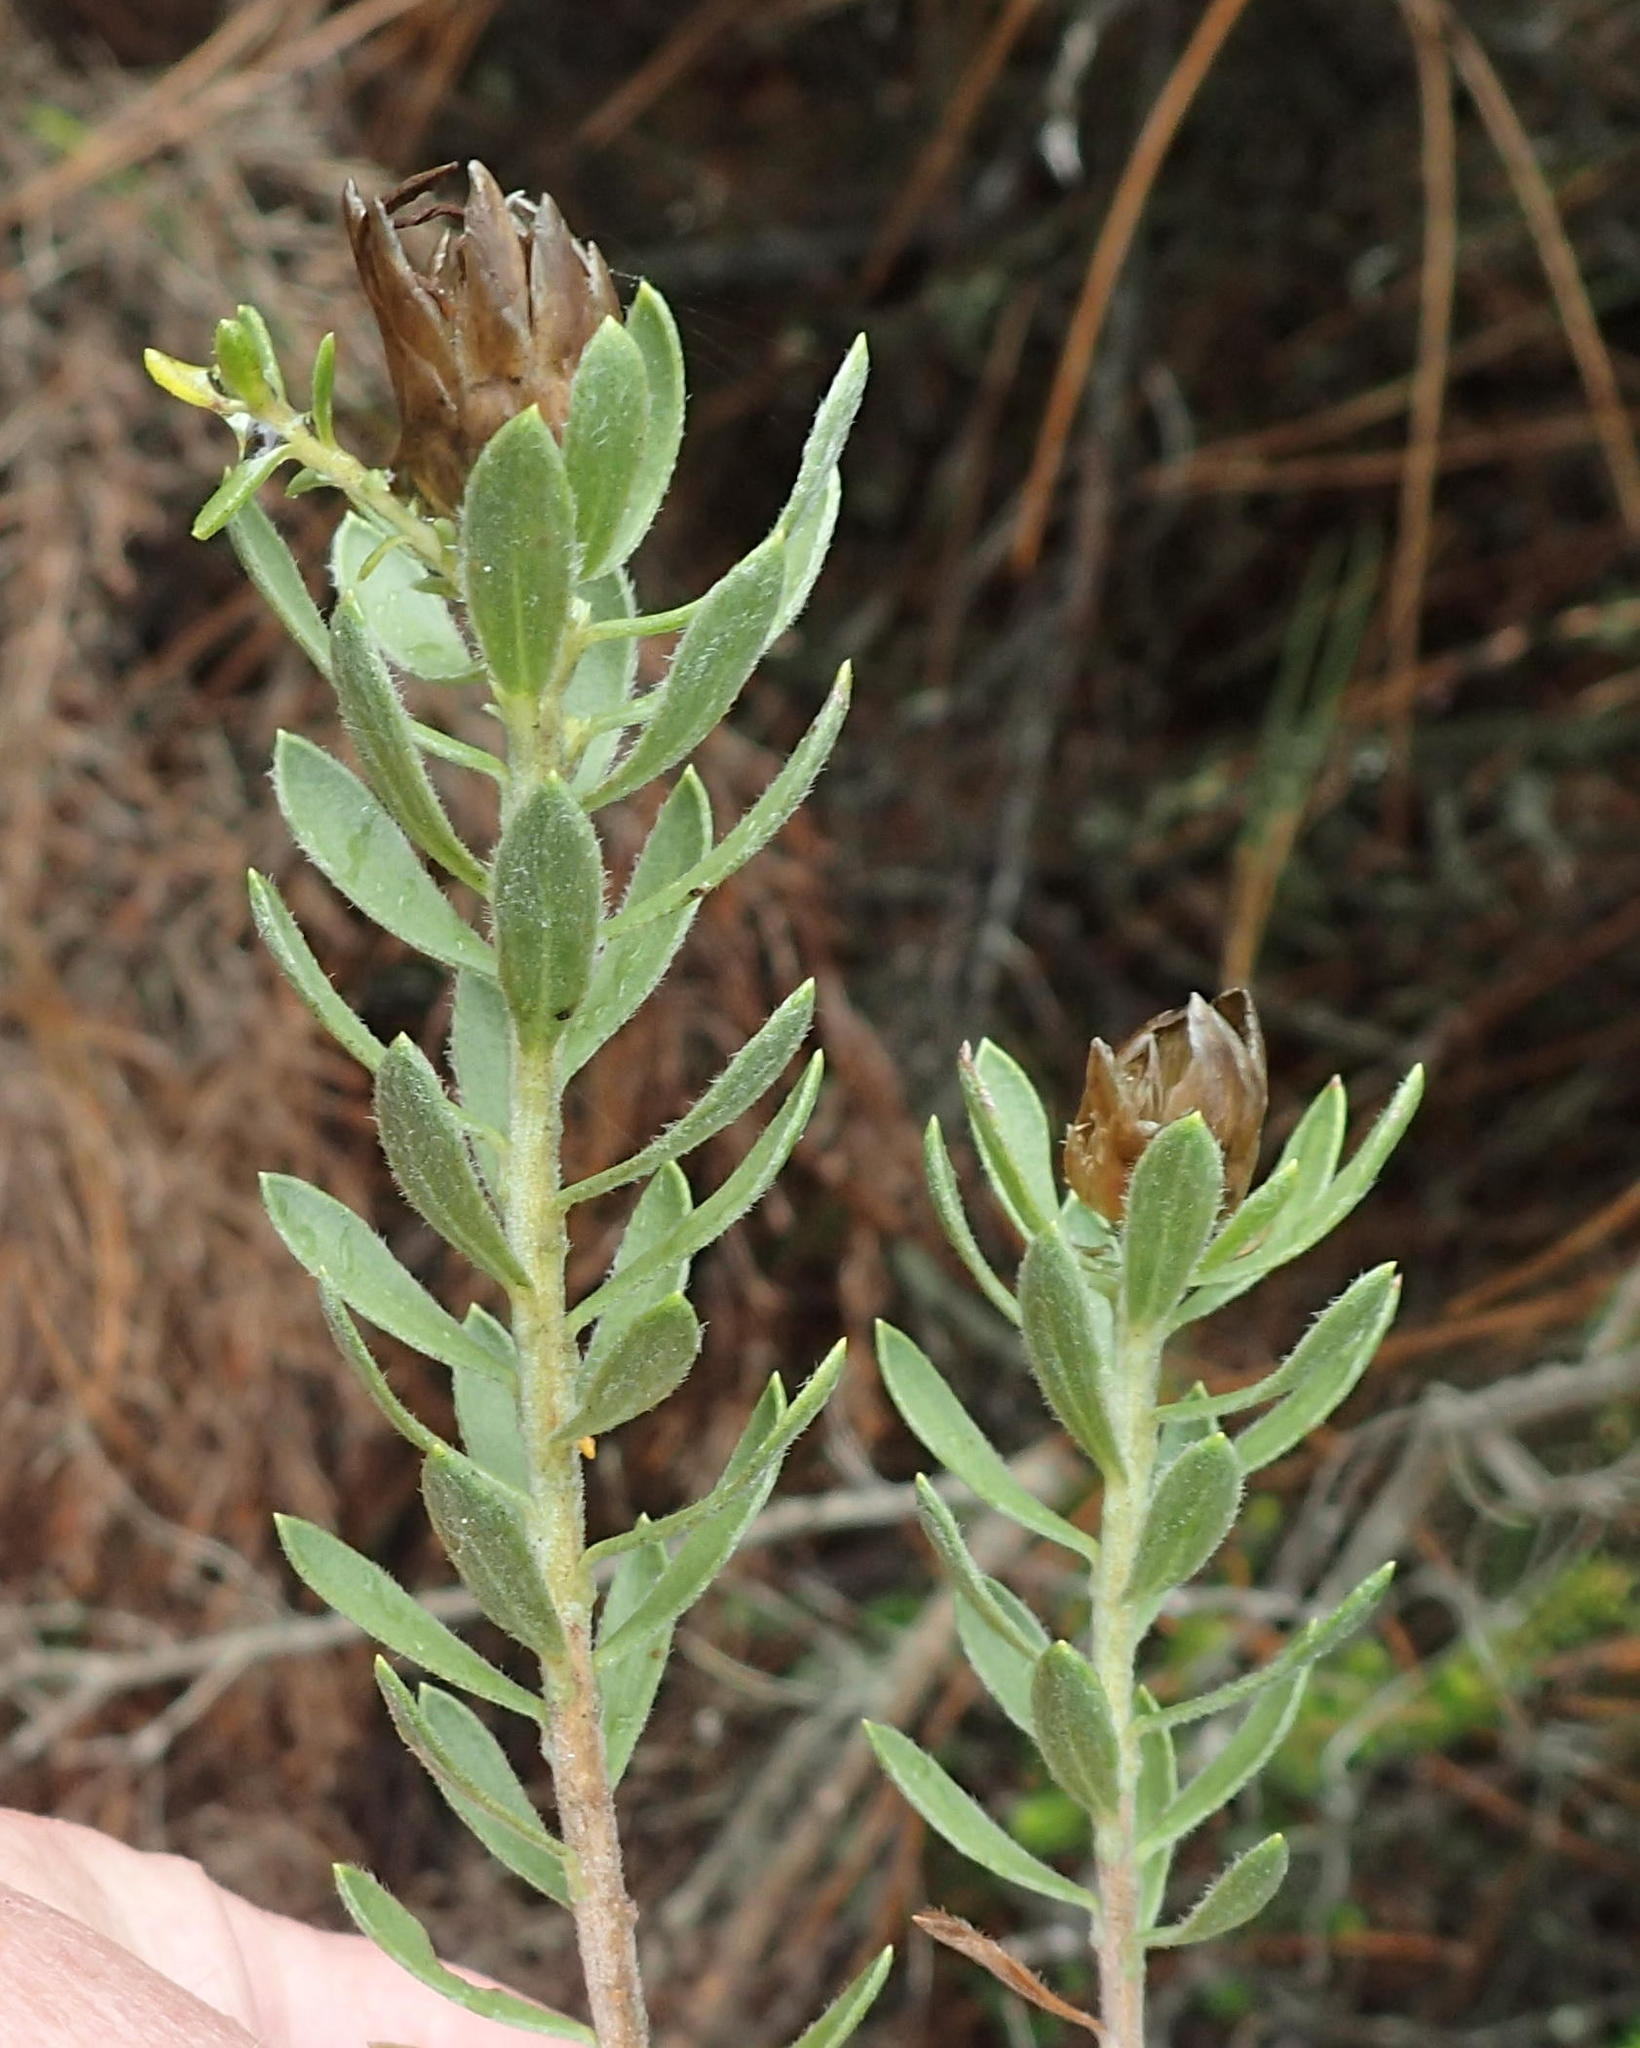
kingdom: Plantae
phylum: Tracheophyta
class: Magnoliopsida
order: Asterales
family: Asteraceae
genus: Oedera
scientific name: Oedera calycina
